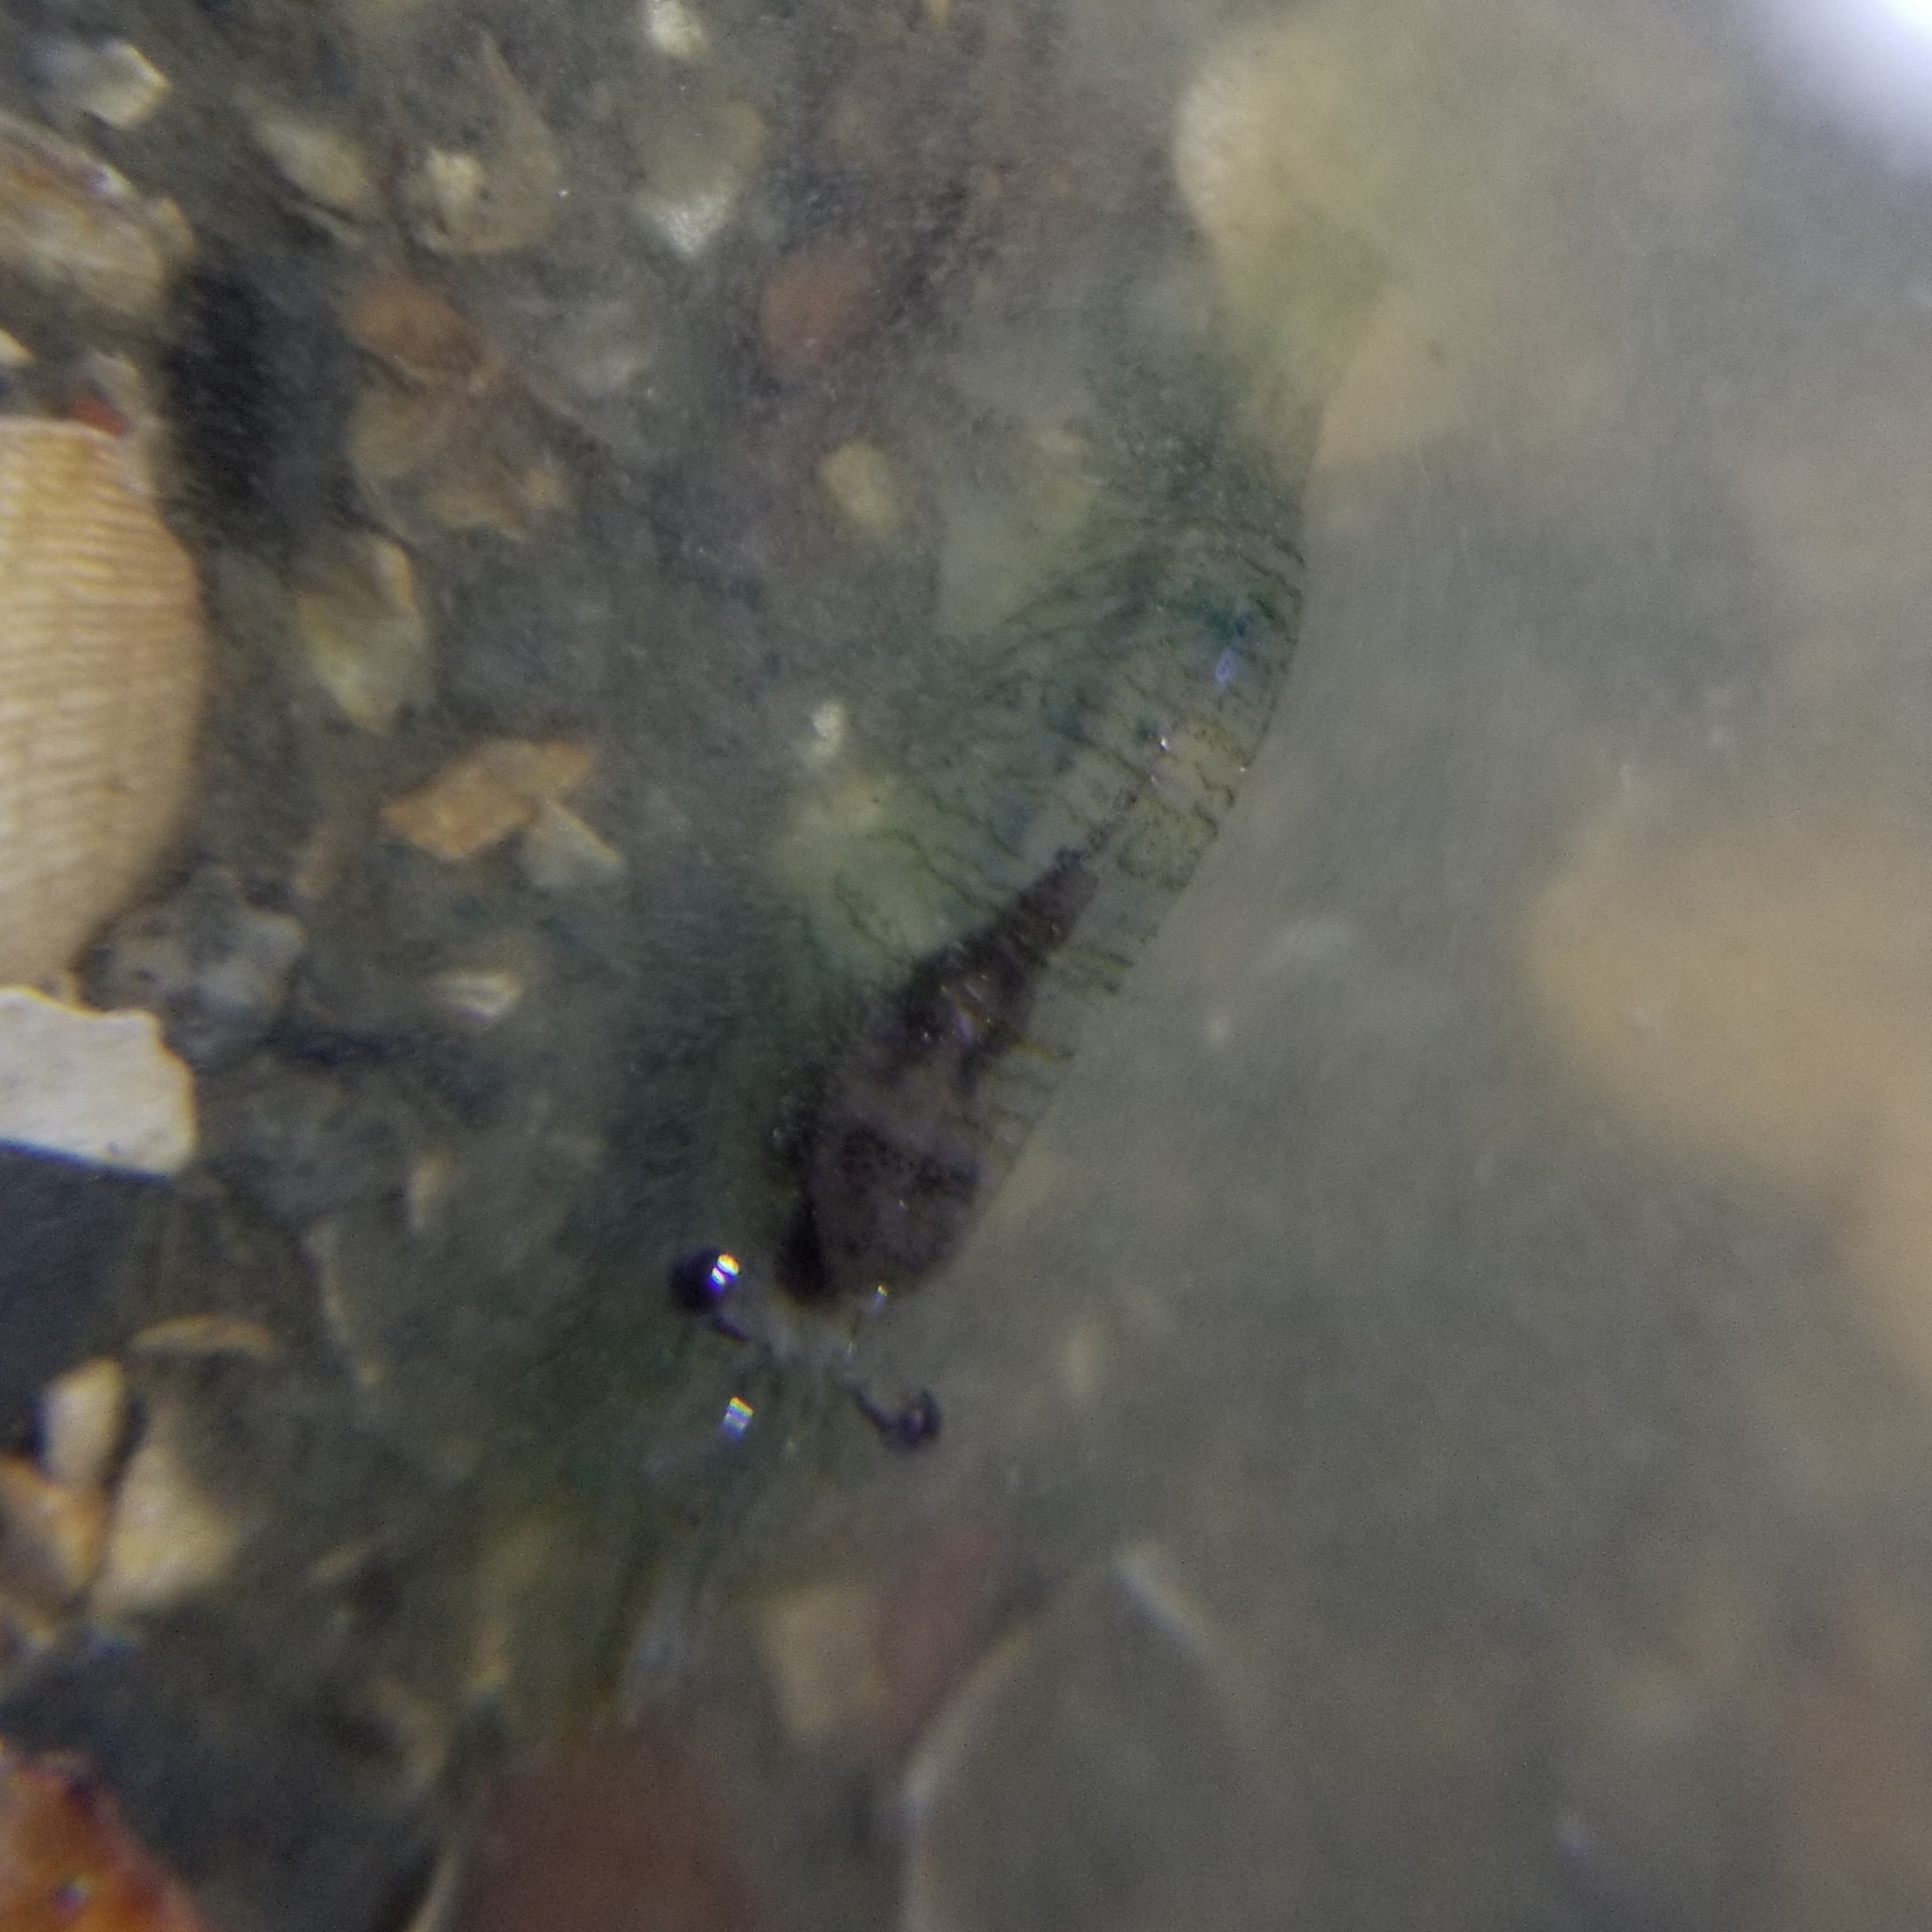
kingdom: Animalia
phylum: Arthropoda
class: Malacostraca
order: Decapoda
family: Thoridae
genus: Heptacarpus
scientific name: Heptacarpus sitchensis
